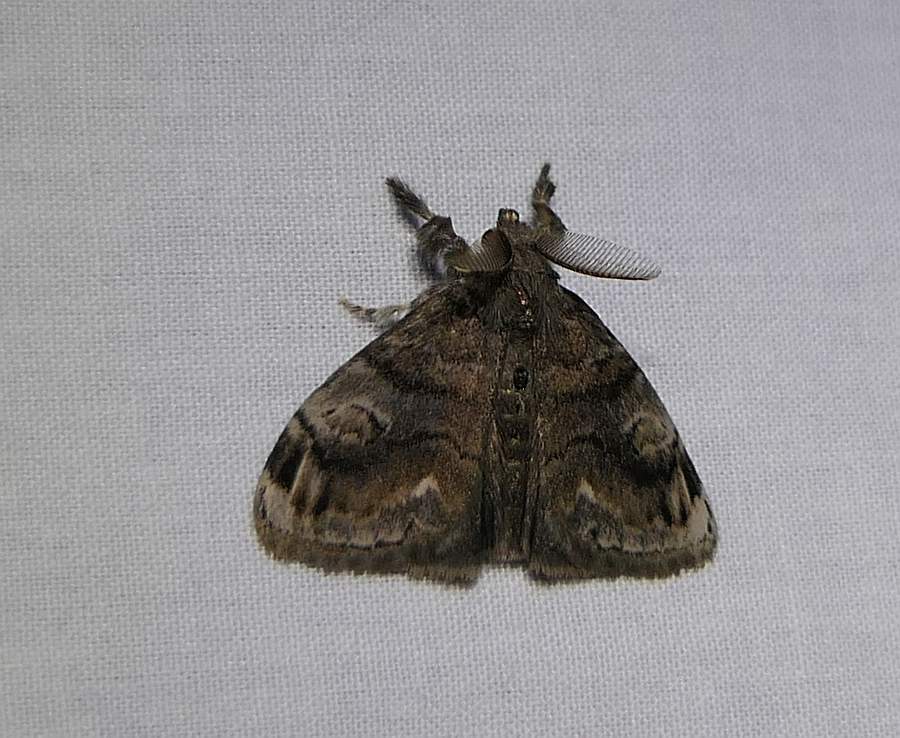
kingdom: Animalia
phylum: Arthropoda
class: Insecta
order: Lepidoptera
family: Erebidae
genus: Orgyia
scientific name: Orgyia definita
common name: Definite tussock moth
